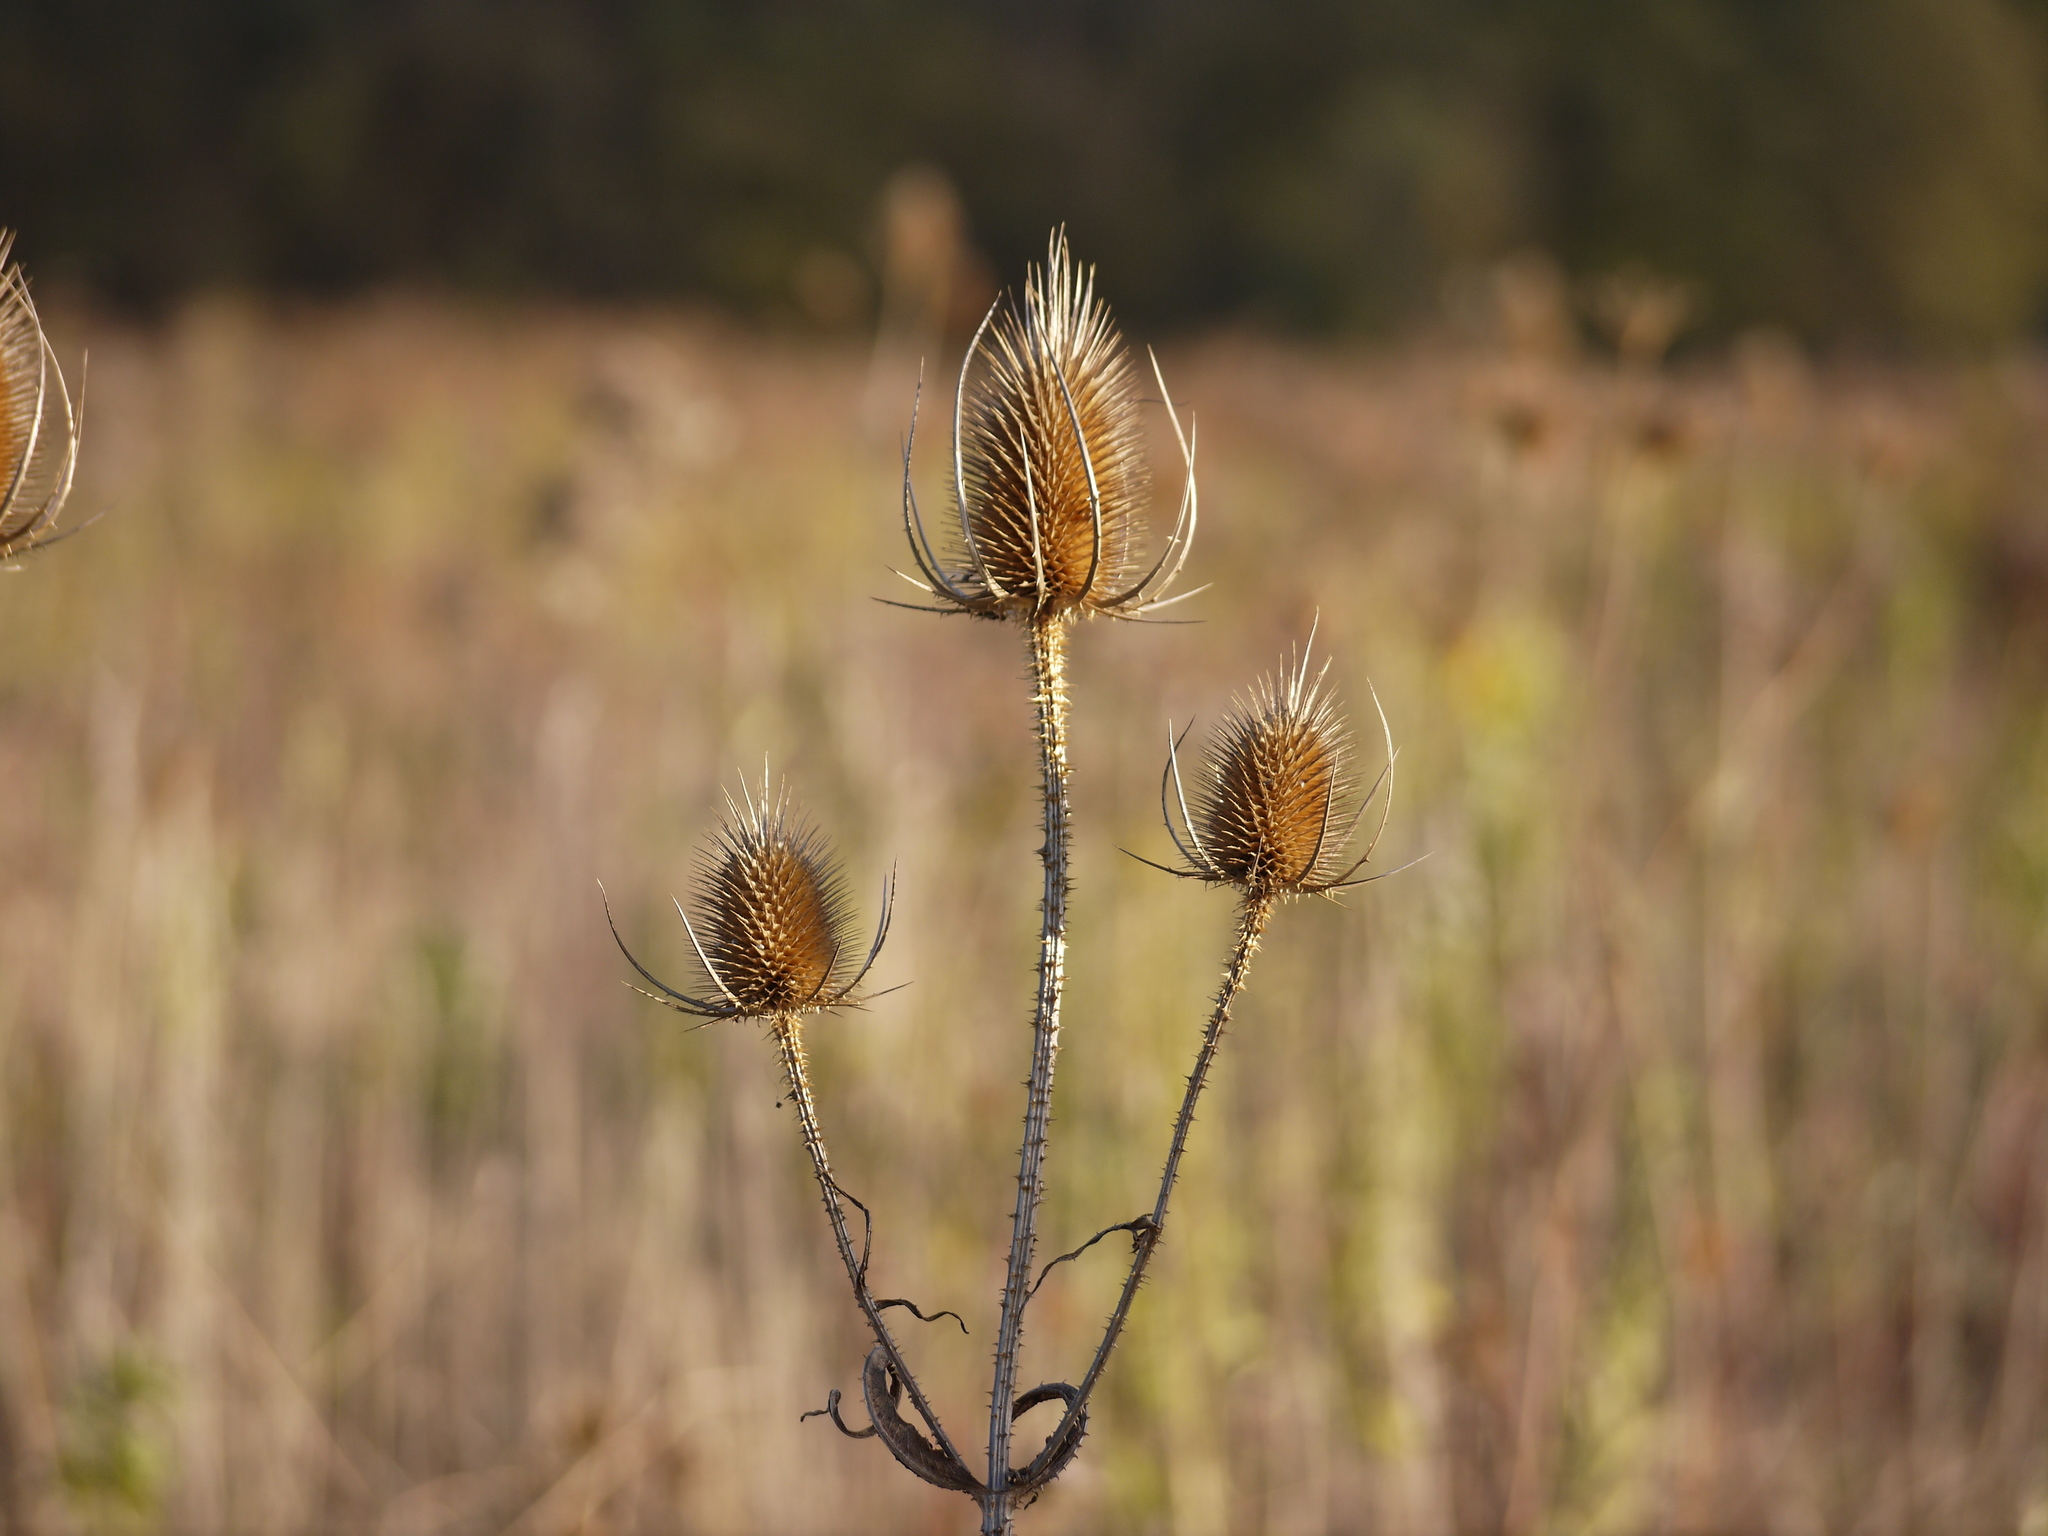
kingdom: Plantae
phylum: Tracheophyta
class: Magnoliopsida
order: Dipsacales
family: Caprifoliaceae
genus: Dipsacus
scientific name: Dipsacus fullonum
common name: Teasel
